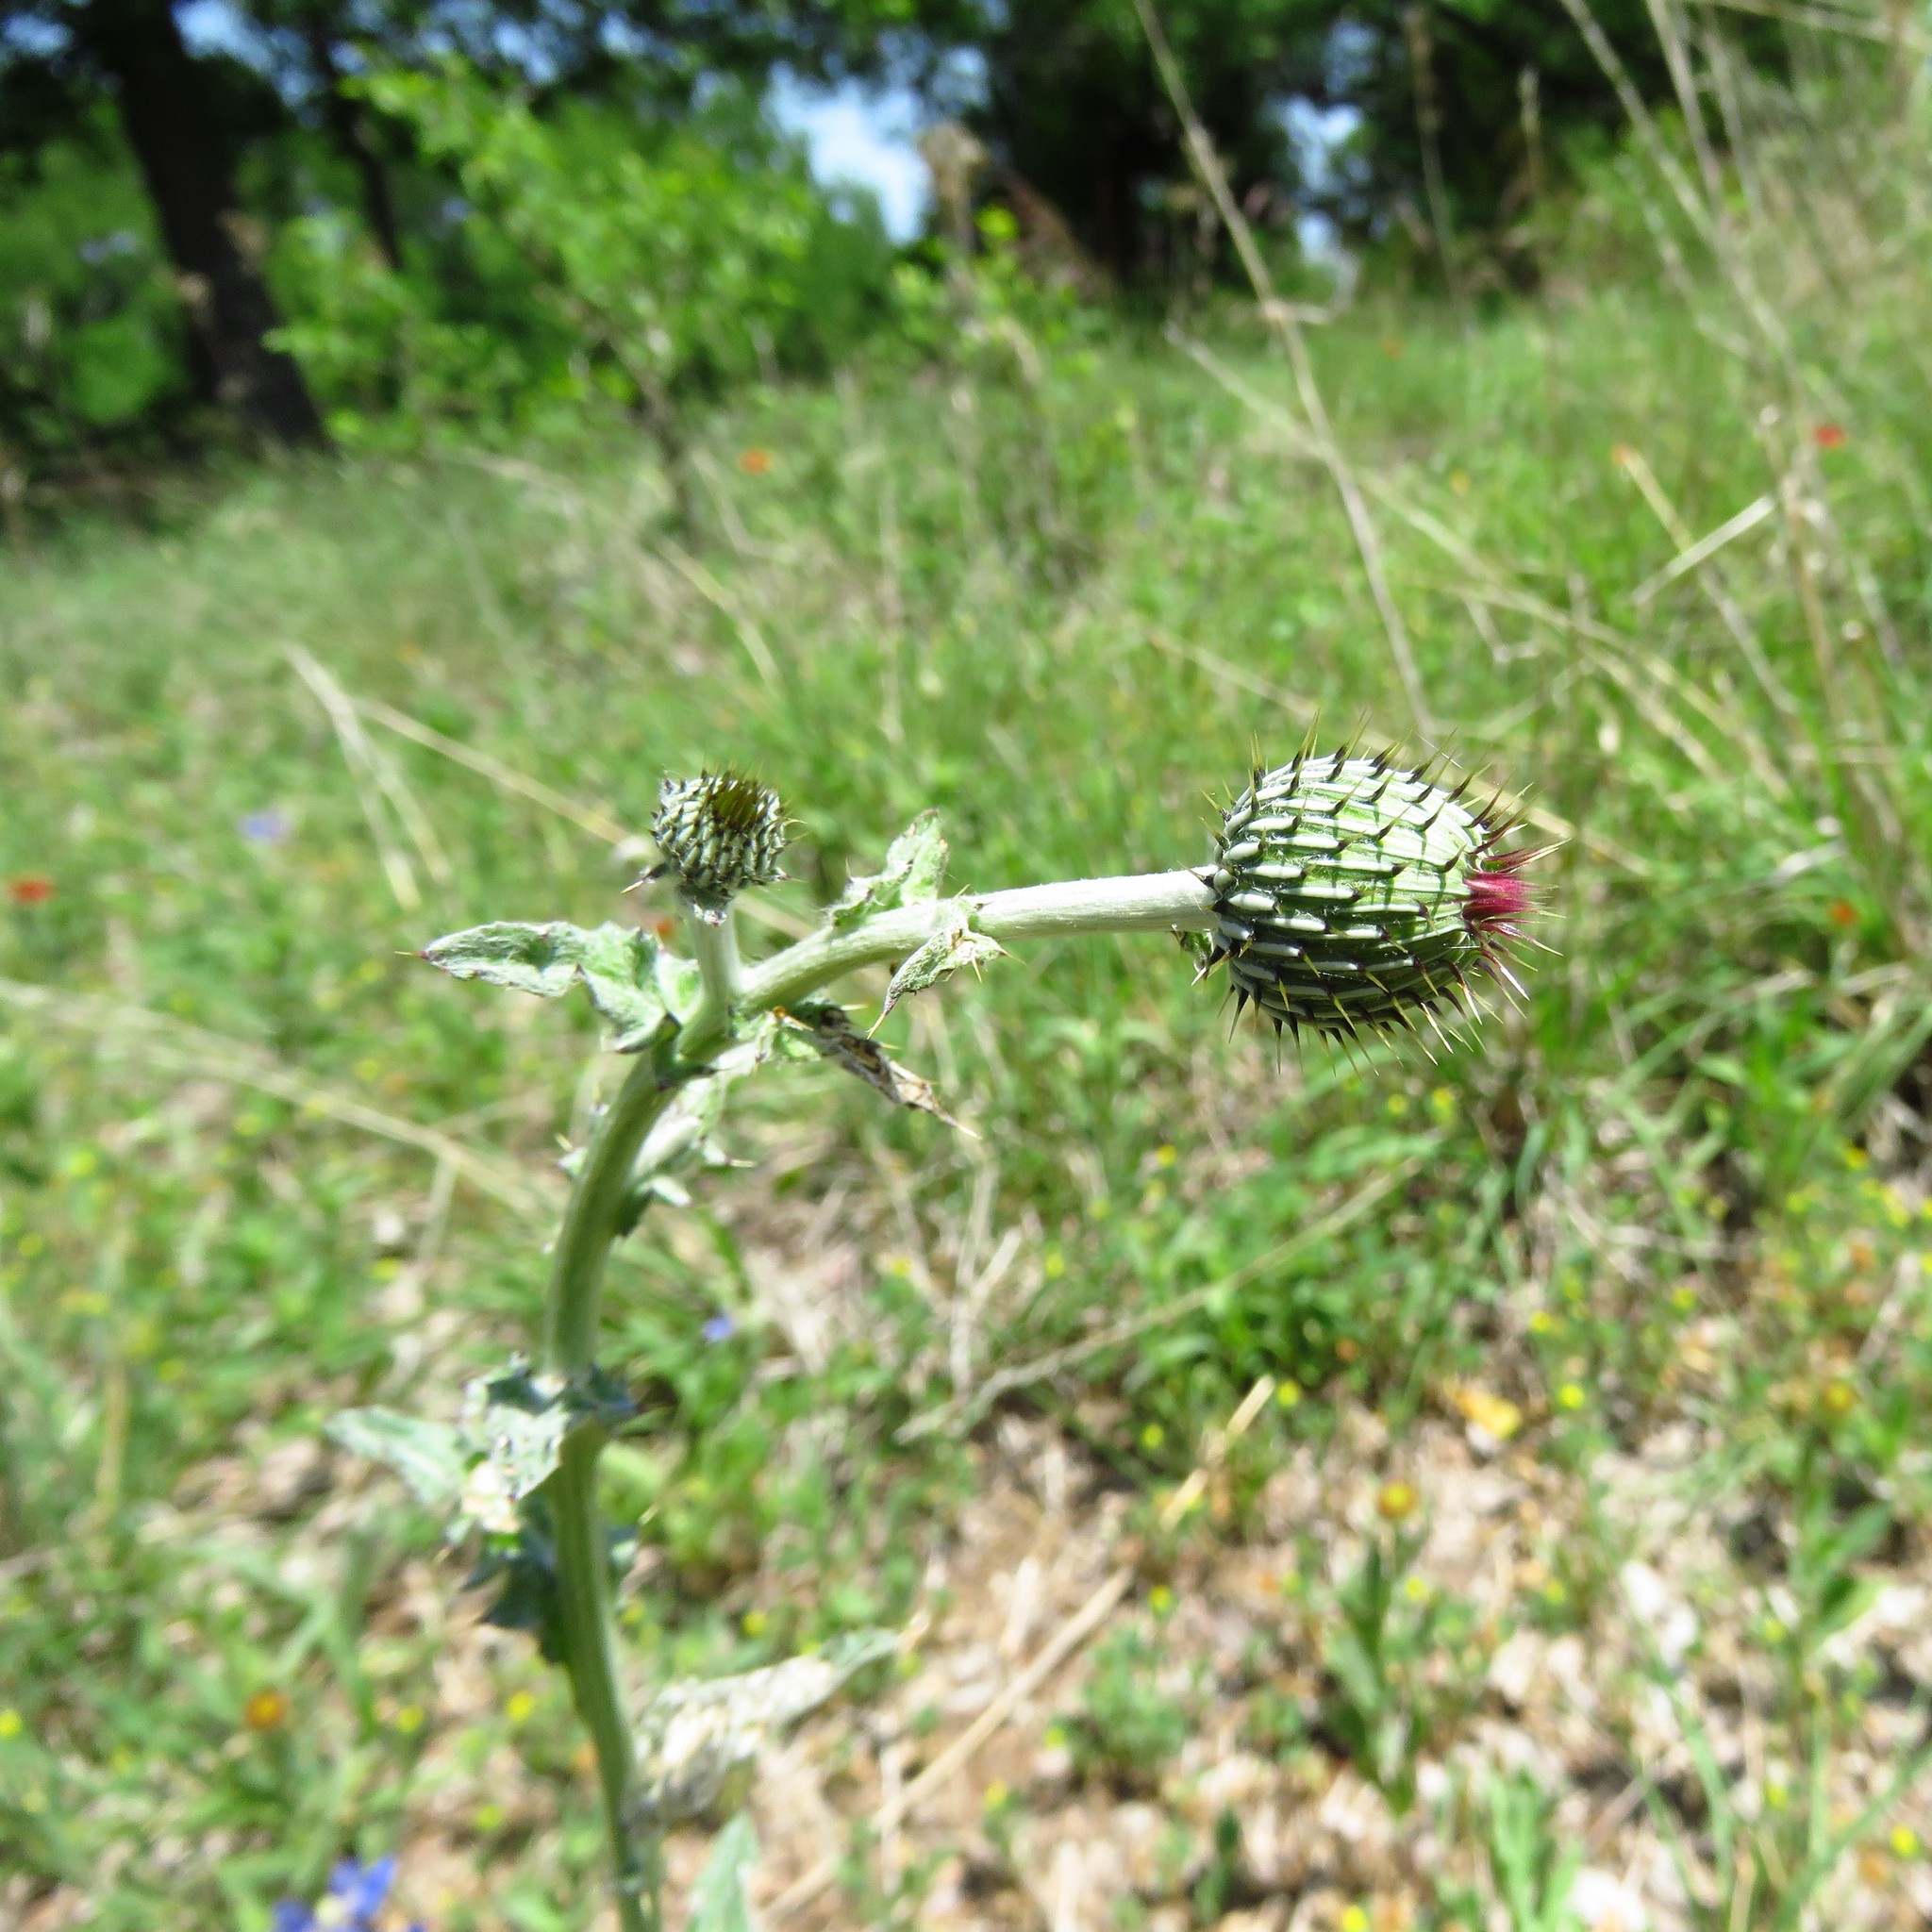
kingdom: Plantae
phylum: Tracheophyta
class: Magnoliopsida
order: Asterales
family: Asteraceae
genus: Cirsium
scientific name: Cirsium texanum
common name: Texas purple thistle
